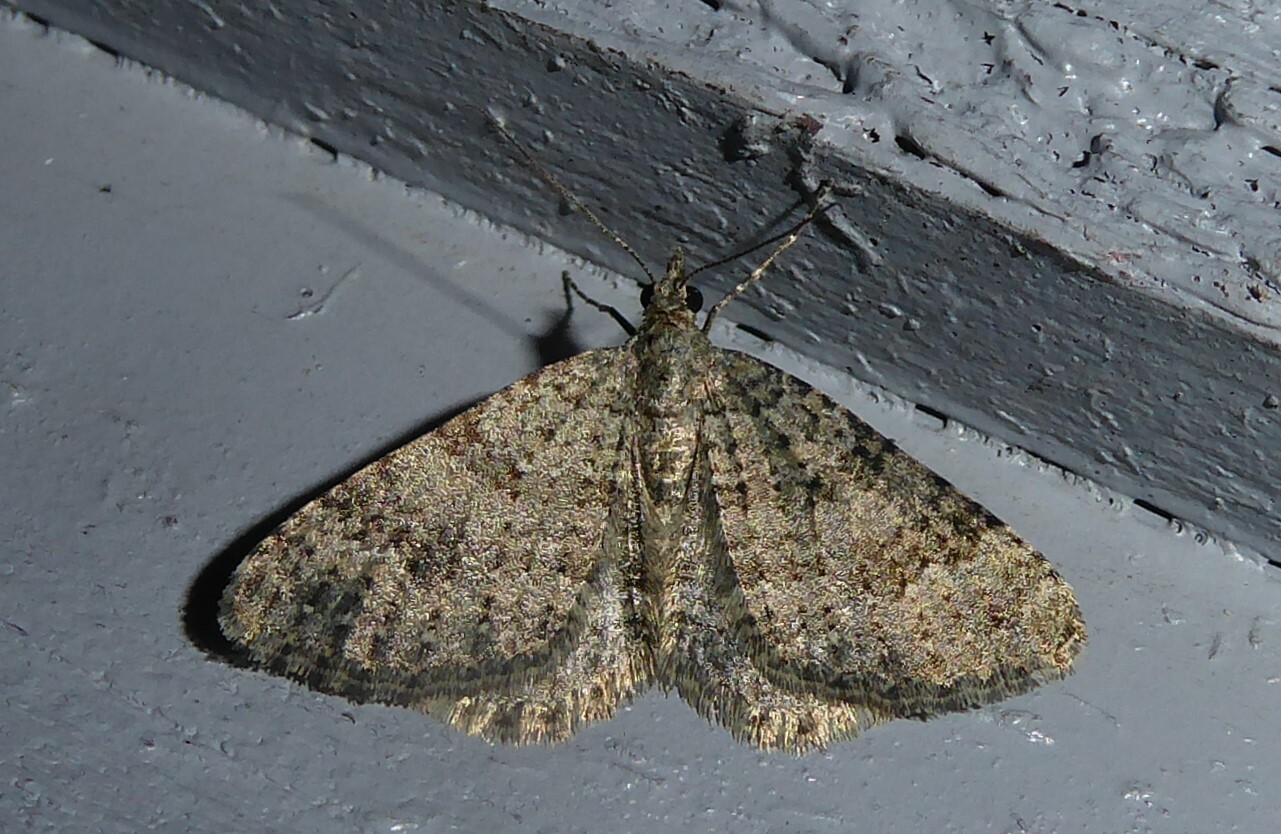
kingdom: Animalia
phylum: Arthropoda
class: Insecta
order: Lepidoptera
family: Geometridae
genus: Helastia
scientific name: Helastia corcularia
